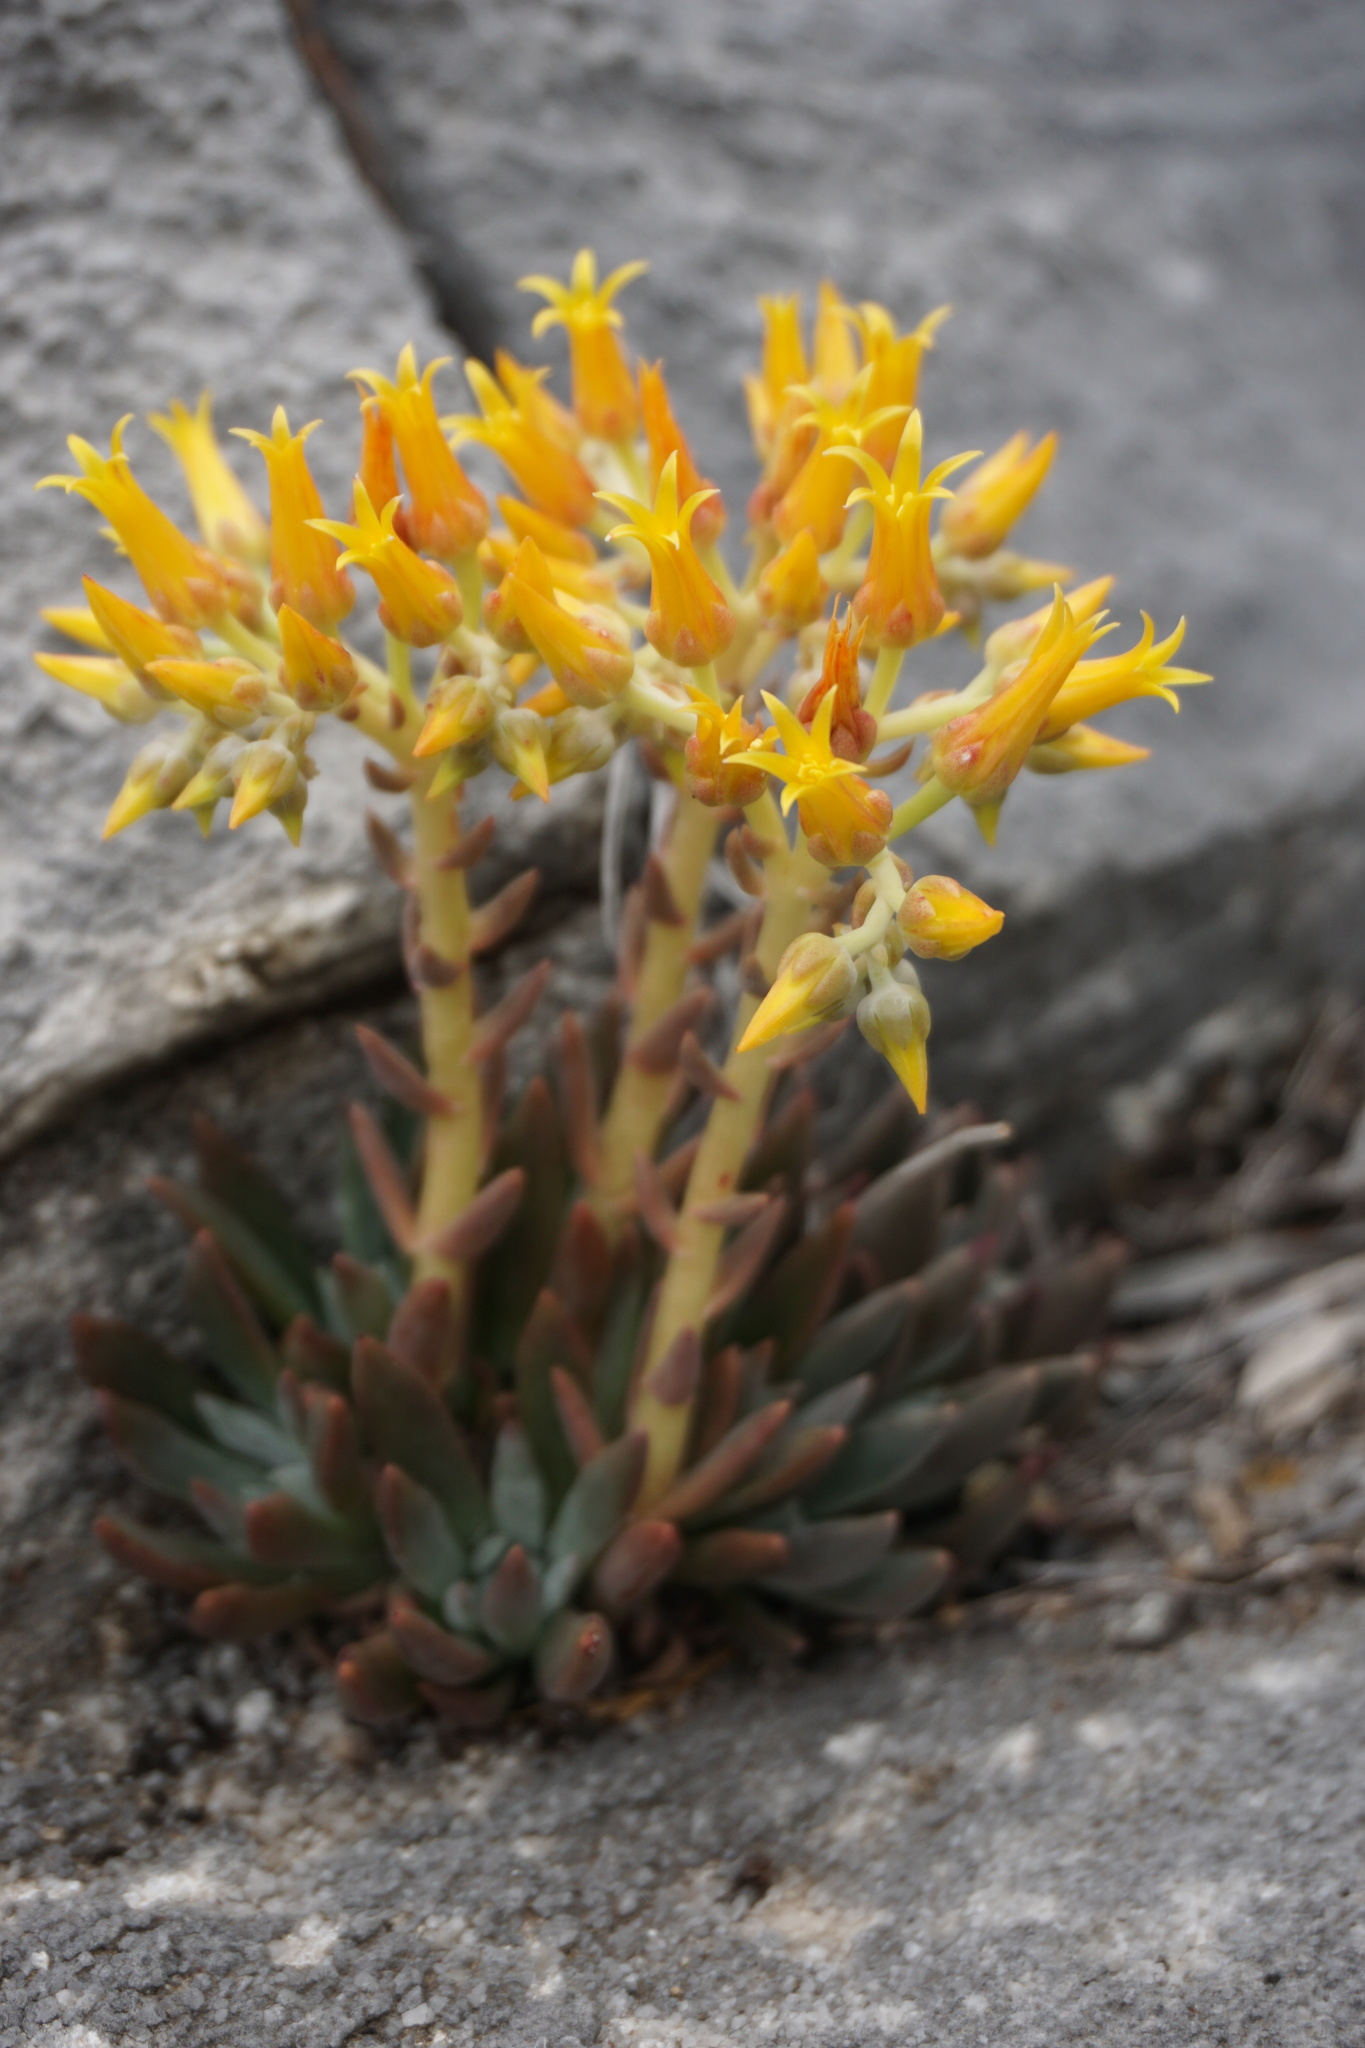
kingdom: Plantae
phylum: Tracheophyta
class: Magnoliopsida
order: Saxifragales
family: Crassulaceae
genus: Dudleya
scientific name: Dudleya abramsii
